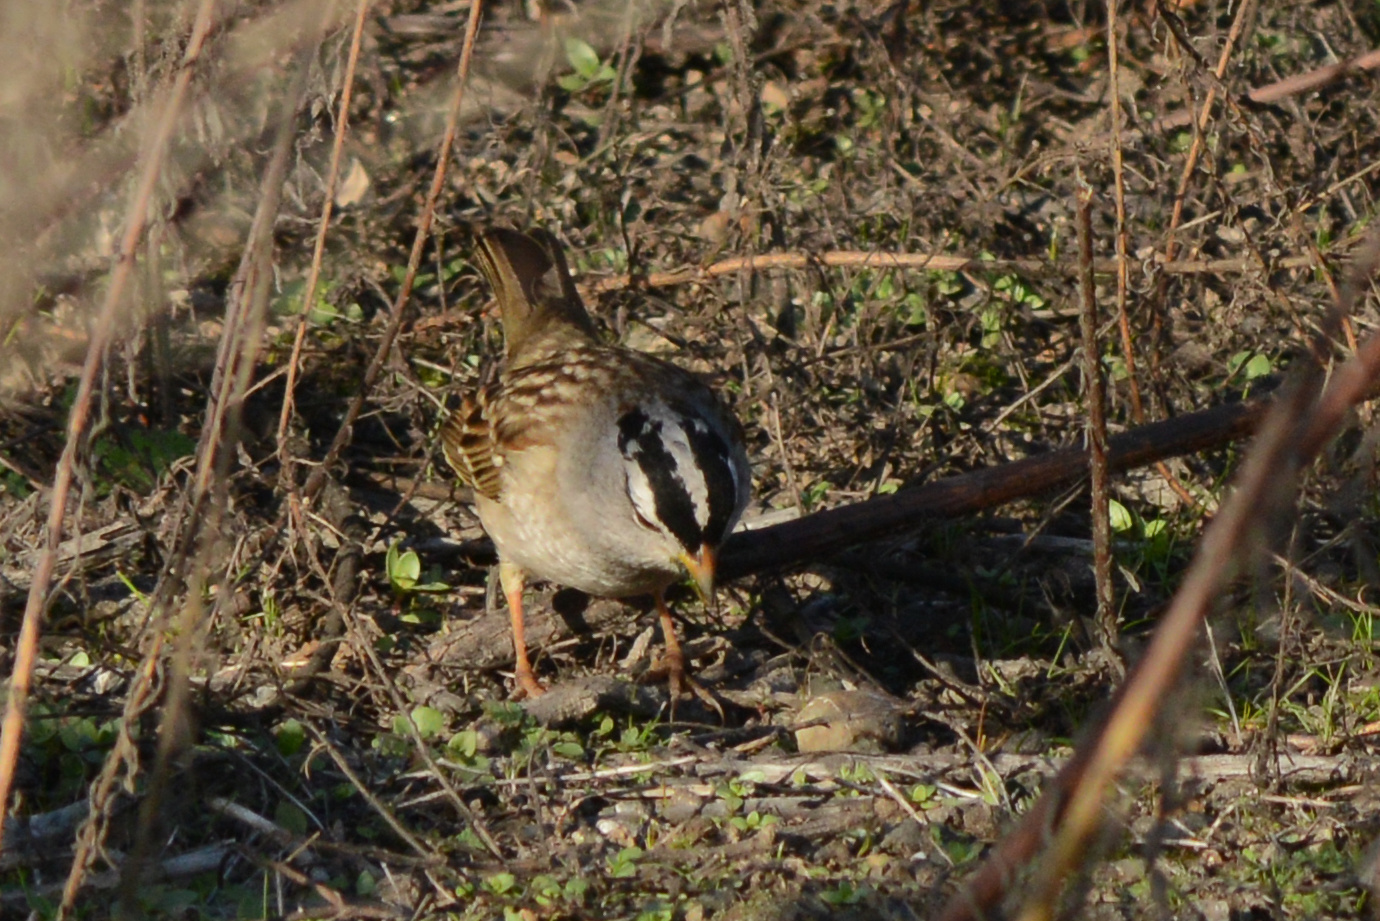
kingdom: Animalia
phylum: Chordata
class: Aves
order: Passeriformes
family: Passerellidae
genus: Zonotrichia
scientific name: Zonotrichia leucophrys
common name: White-crowned sparrow
